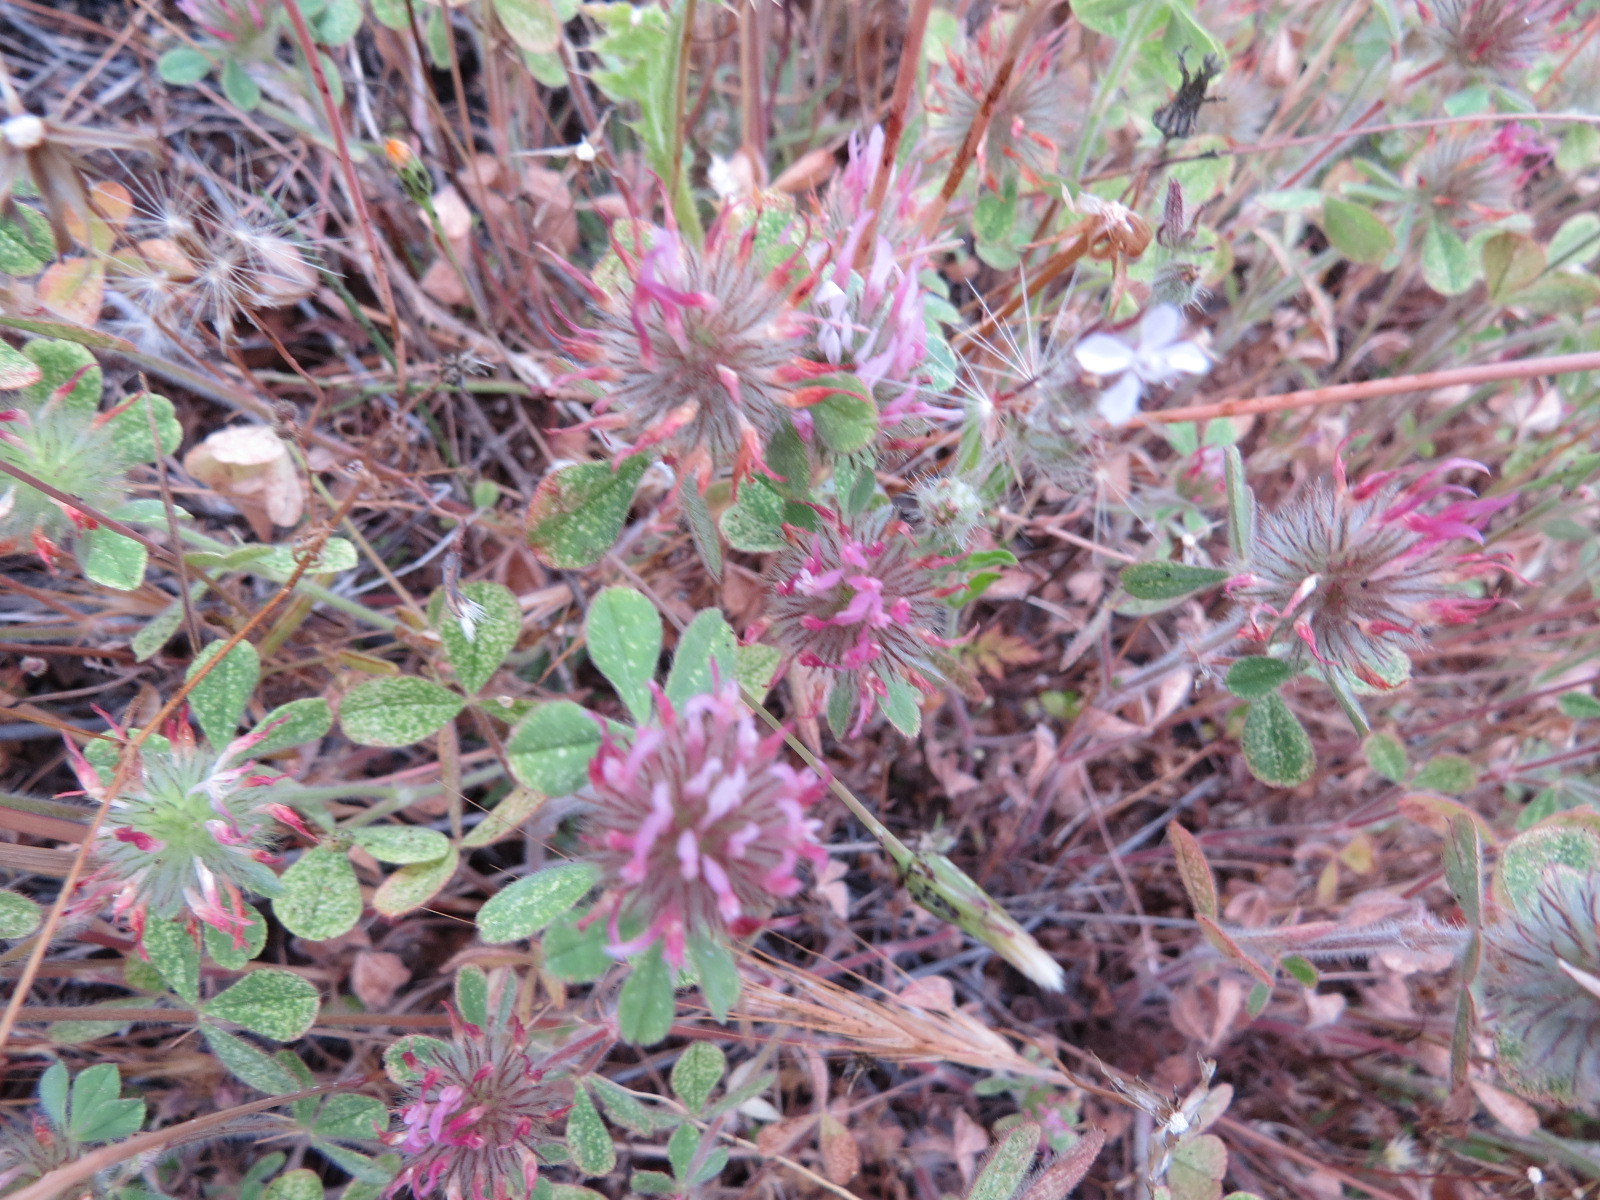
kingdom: Plantae
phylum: Tracheophyta
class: Magnoliopsida
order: Fabales
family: Fabaceae
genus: Trifolium
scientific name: Trifolium hirtum
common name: Rose clover
